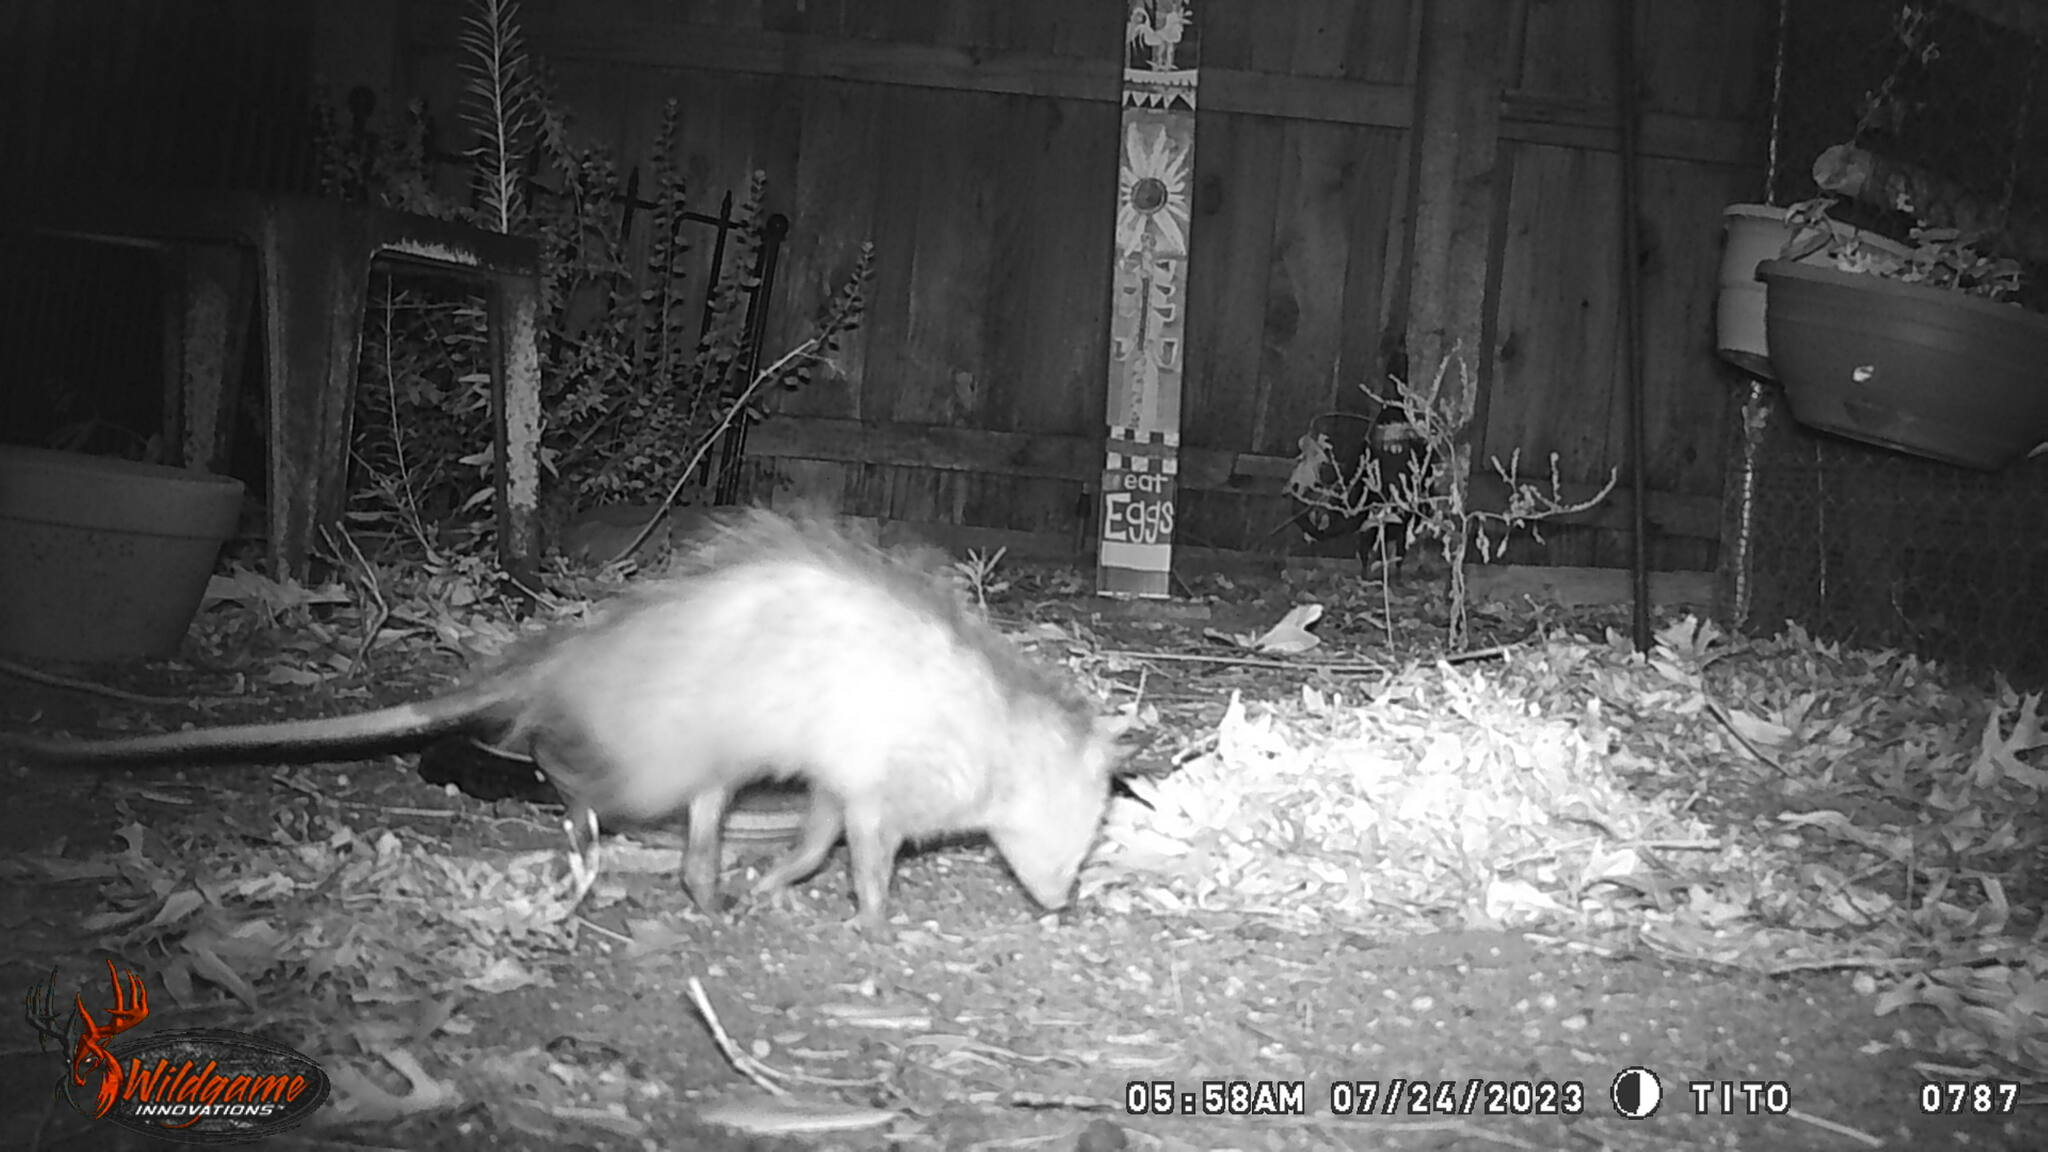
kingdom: Animalia
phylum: Chordata
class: Mammalia
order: Didelphimorphia
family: Didelphidae
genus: Didelphis
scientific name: Didelphis virginiana
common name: Virginia opossum
